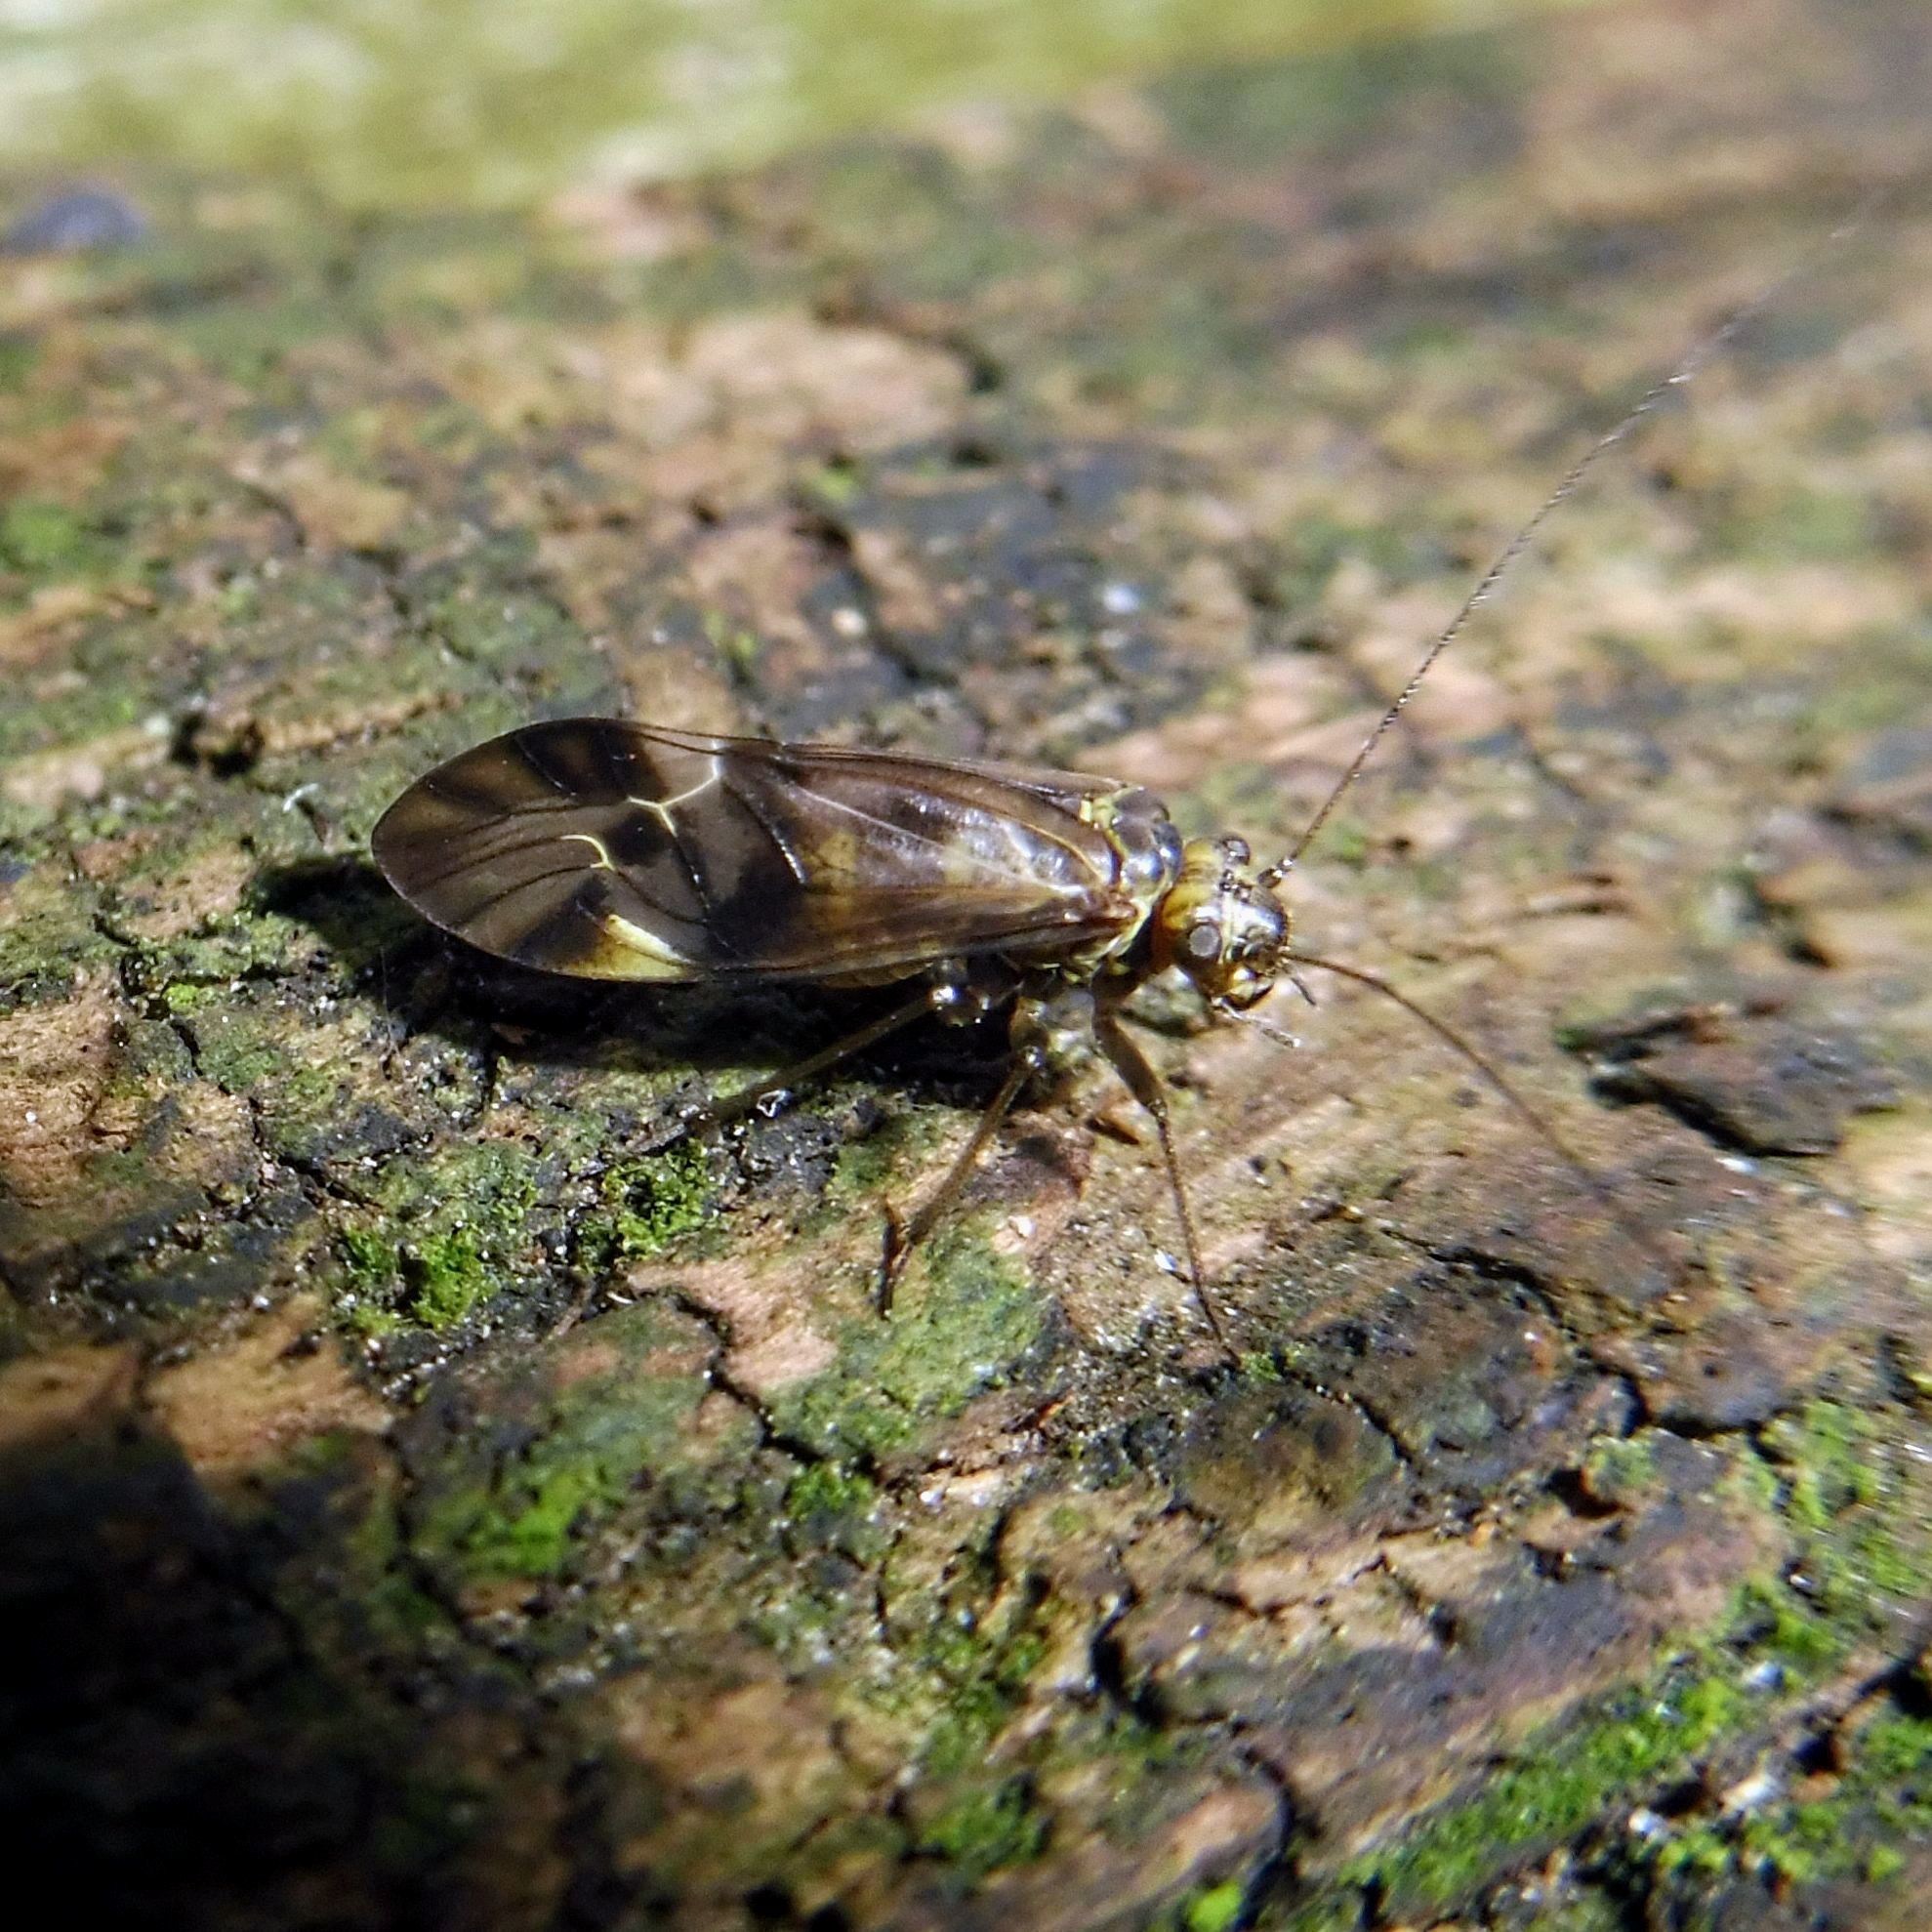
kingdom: Animalia
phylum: Arthropoda
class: Insecta
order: Psocodea
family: Psocidae
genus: Metylophorus
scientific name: Metylophorus nebulosus
